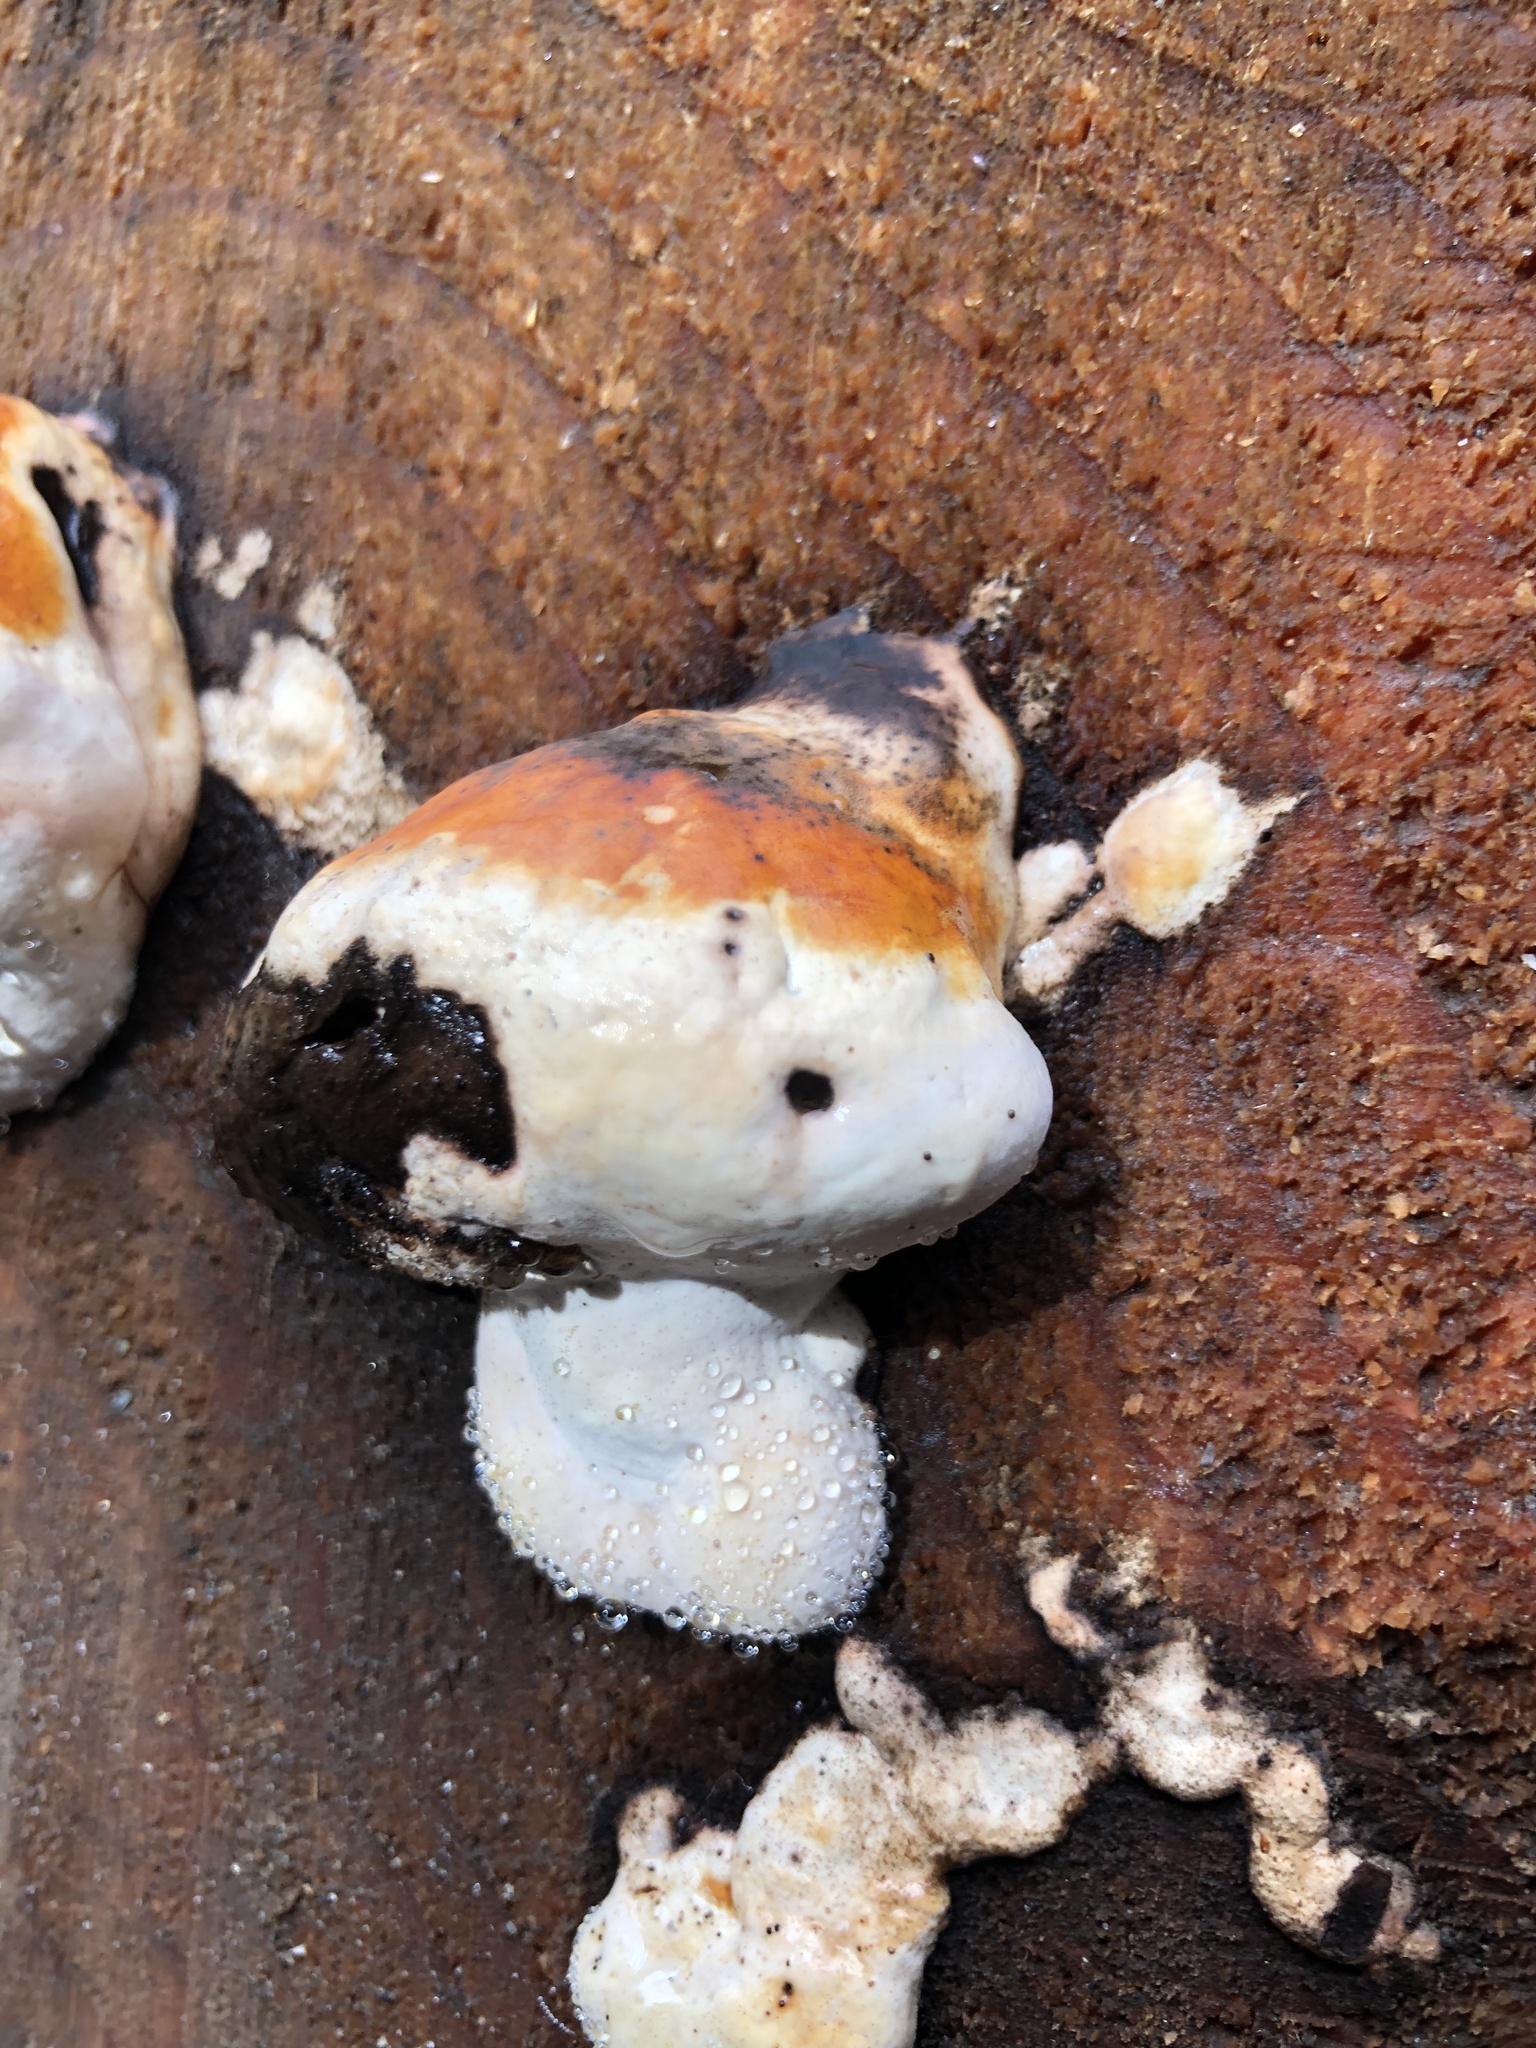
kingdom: Fungi
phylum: Basidiomycota
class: Agaricomycetes
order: Polyporales
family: Fomitopsidaceae
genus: Fomitopsis
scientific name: Fomitopsis mounceae
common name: Northern red belt
